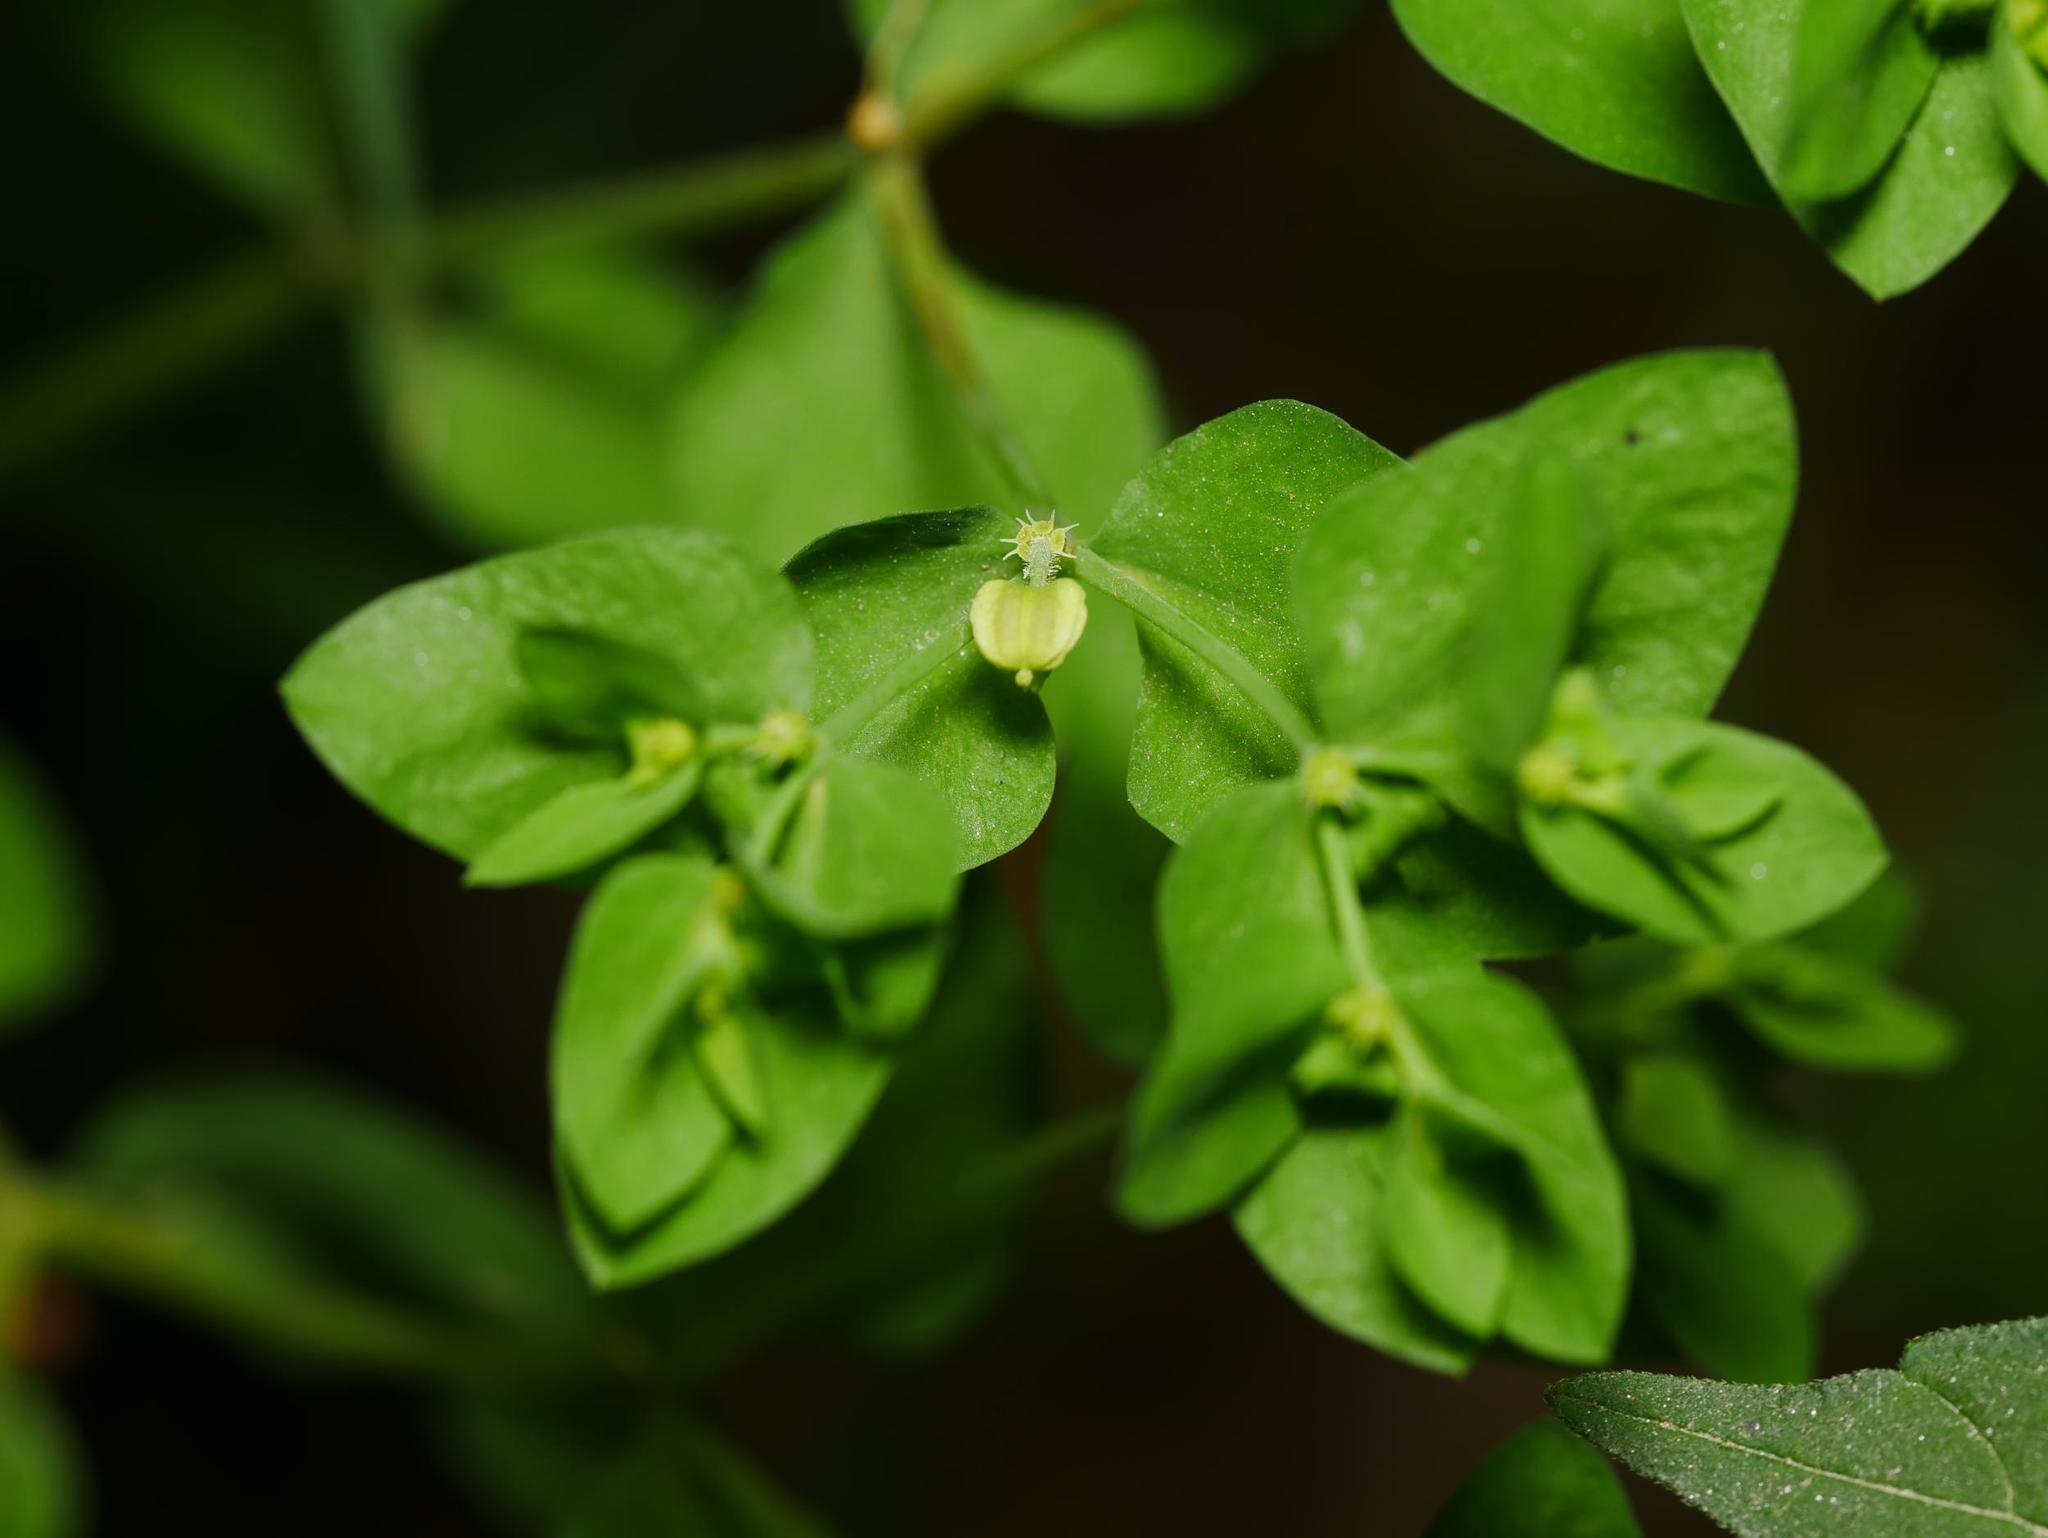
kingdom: Plantae
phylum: Tracheophyta
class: Magnoliopsida
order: Malpighiales
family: Euphorbiaceae
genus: Euphorbia
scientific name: Euphorbia peplus
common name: Petty spurge
